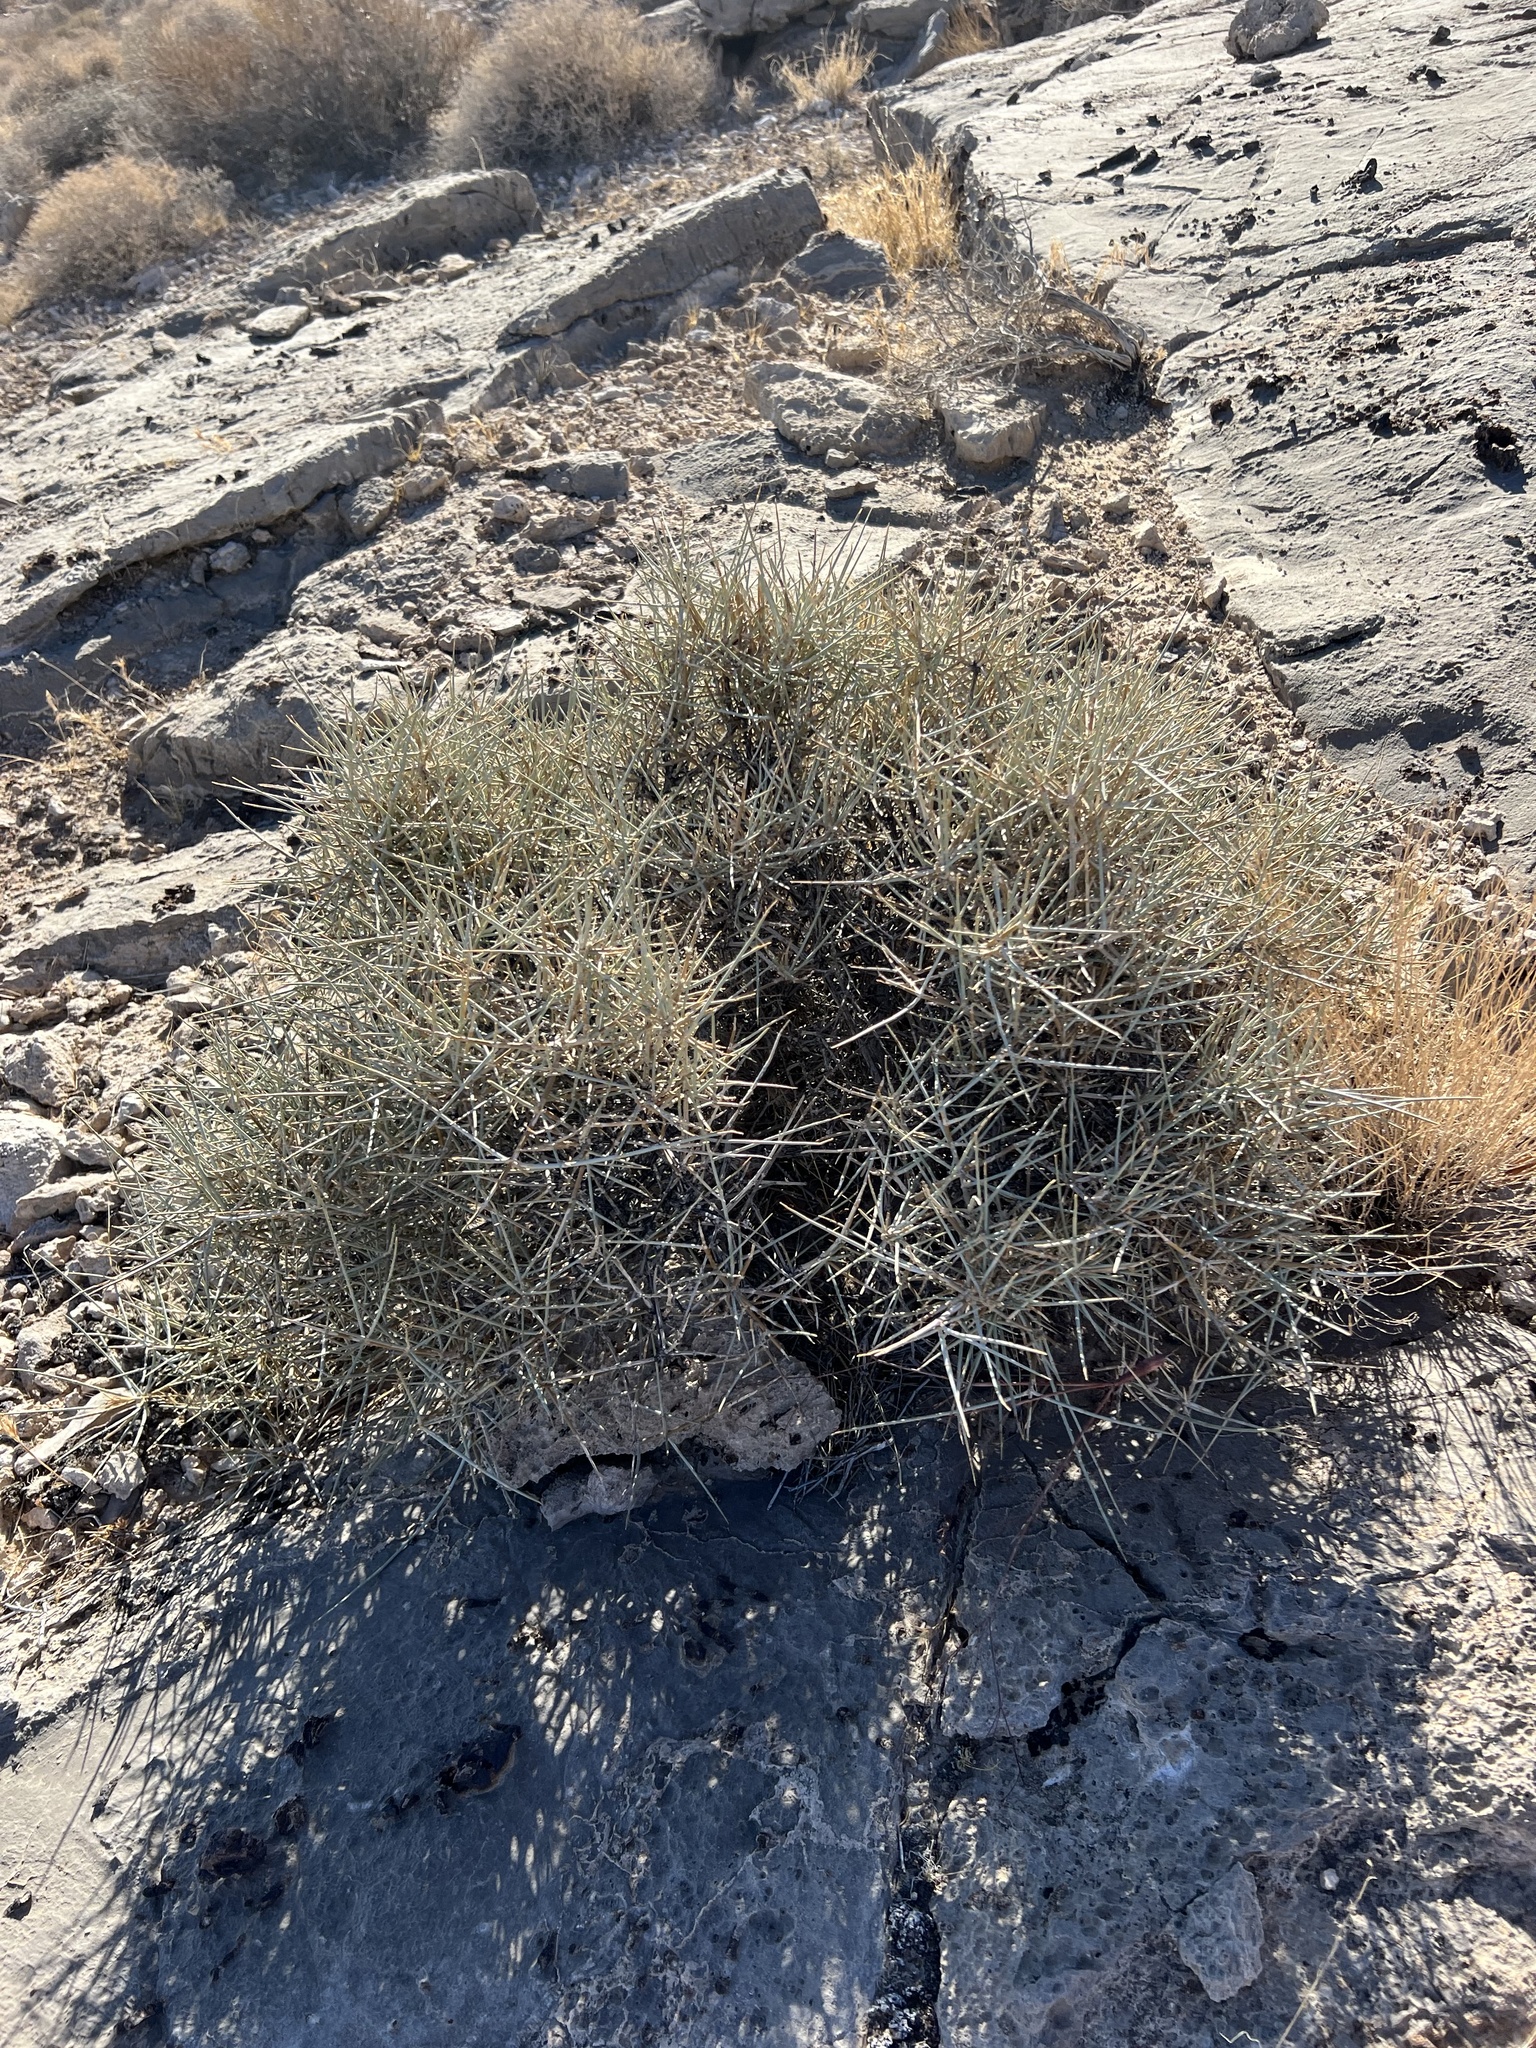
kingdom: Plantae
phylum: Tracheophyta
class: Gnetopsida
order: Ephedrales
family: Ephedraceae
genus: Ephedra
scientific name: Ephedra nevadensis
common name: Gray ephedra
